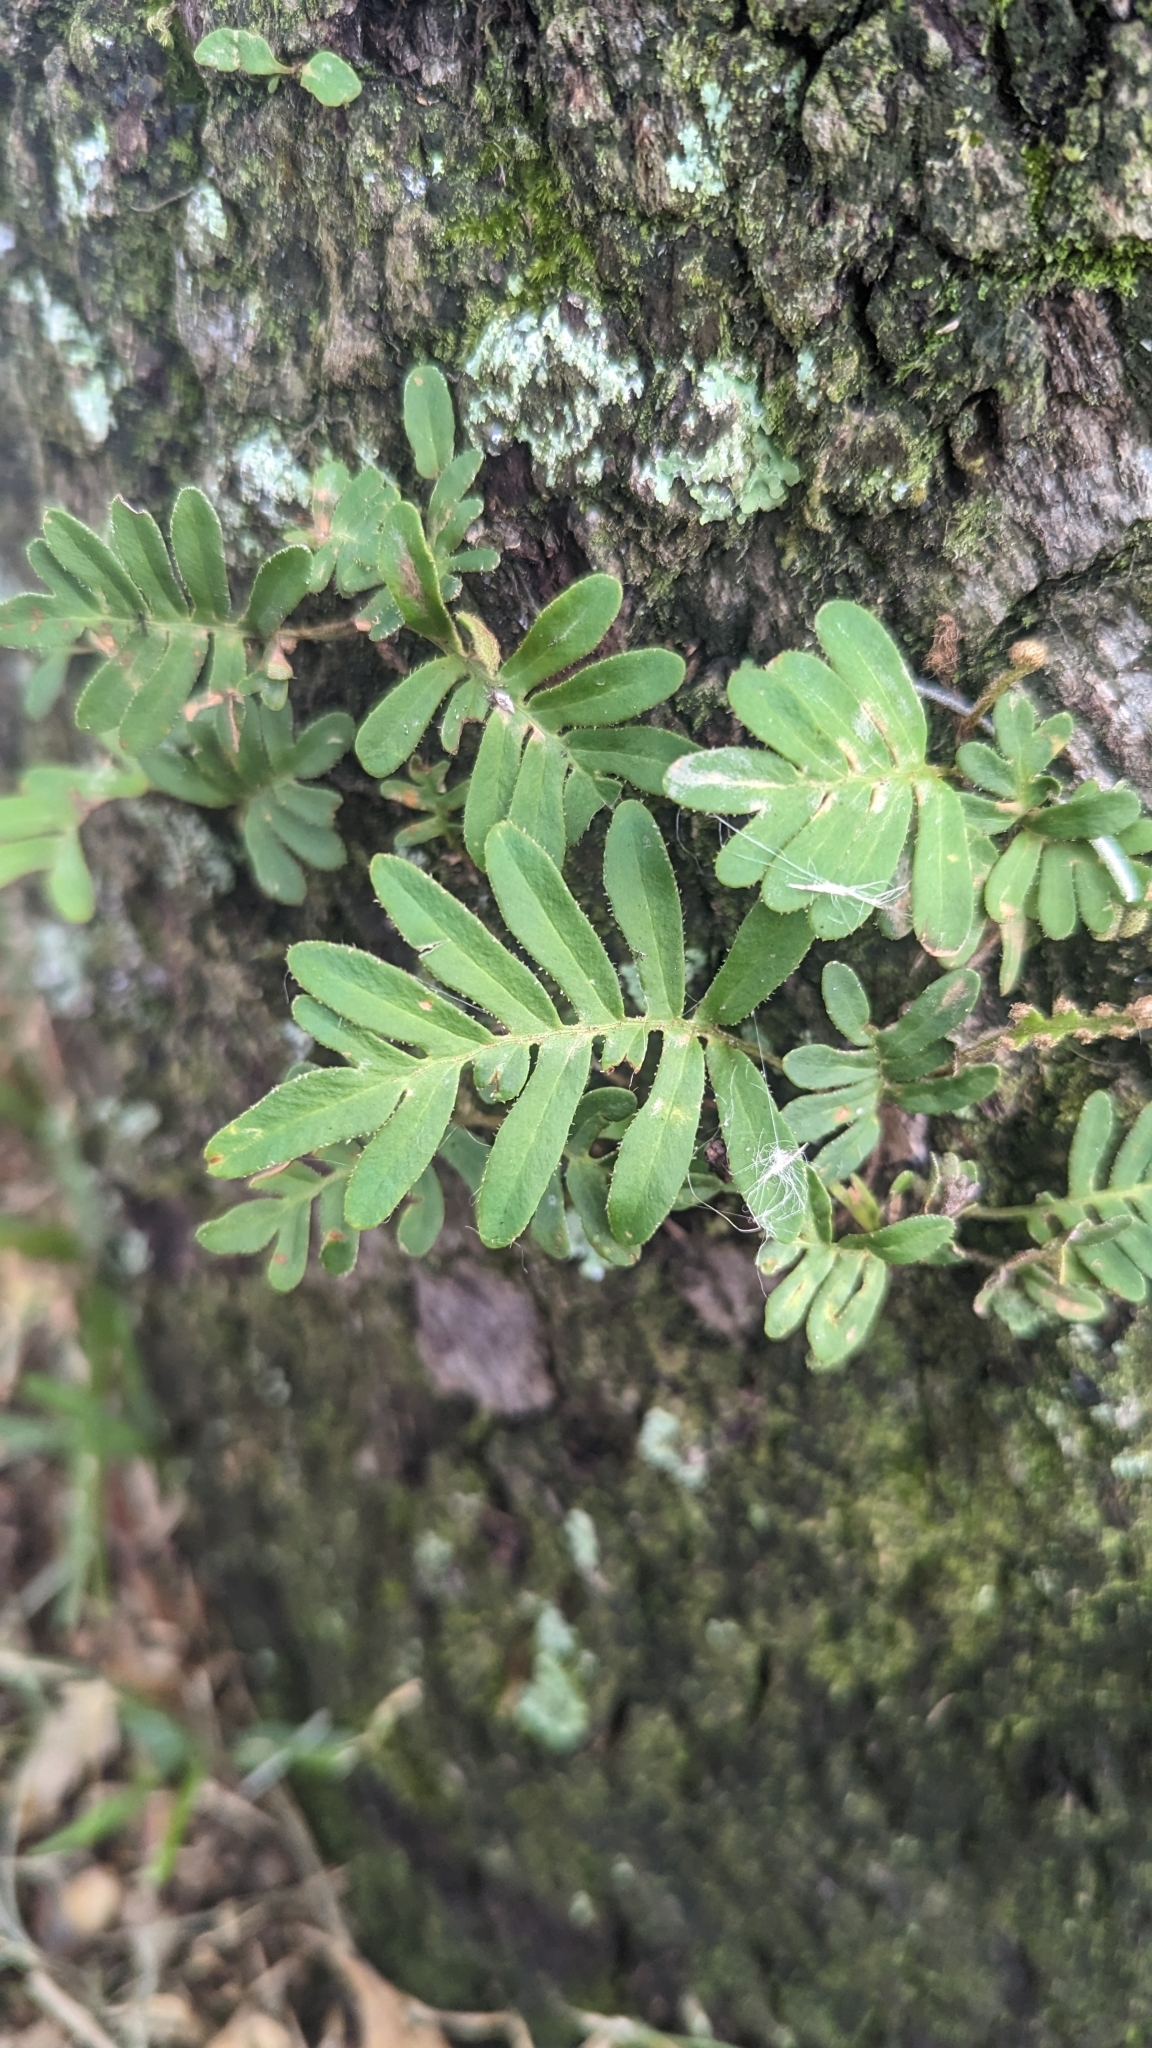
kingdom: Plantae
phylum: Tracheophyta
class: Polypodiopsida
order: Polypodiales
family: Polypodiaceae
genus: Pleopeltis
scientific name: Pleopeltis michauxiana
